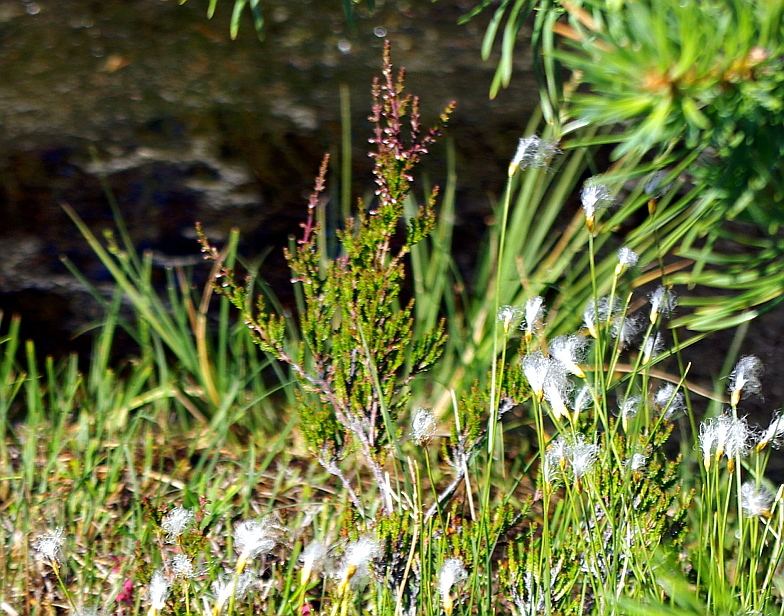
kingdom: Plantae
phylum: Tracheophyta
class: Magnoliopsida
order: Ericales
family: Ericaceae
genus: Calluna
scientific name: Calluna vulgaris
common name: Heather
